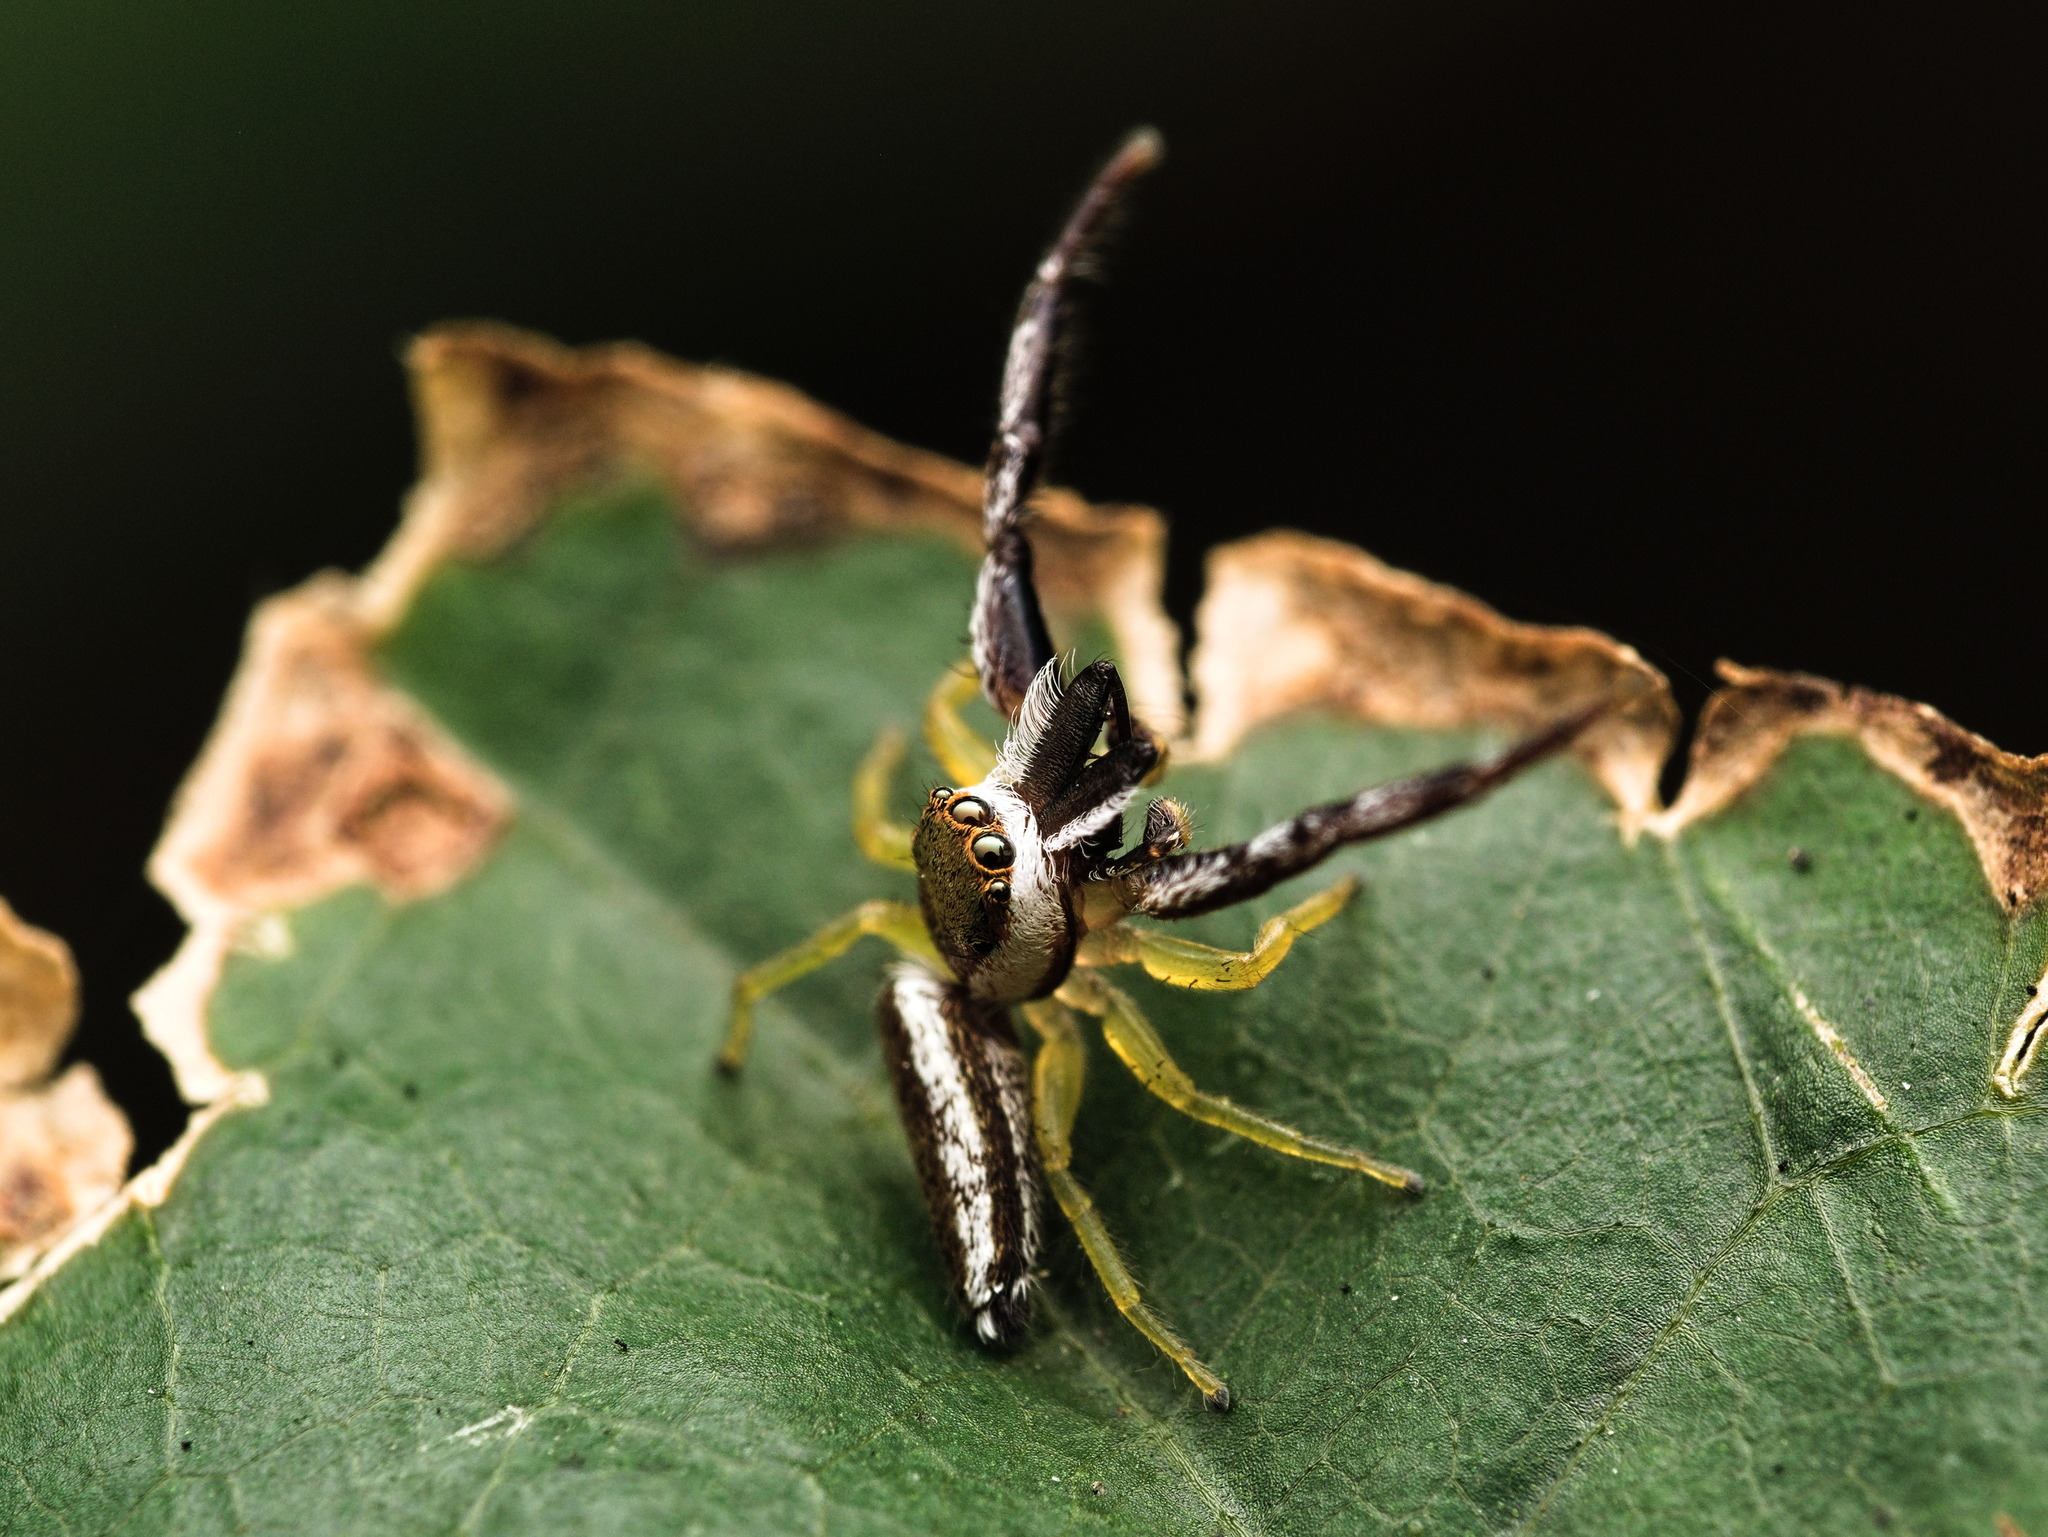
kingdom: Animalia
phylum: Arthropoda
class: Arachnida
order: Araneae
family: Salticidae
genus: Hentzia
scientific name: Hentzia palmarum
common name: Common hentz jumping spider
